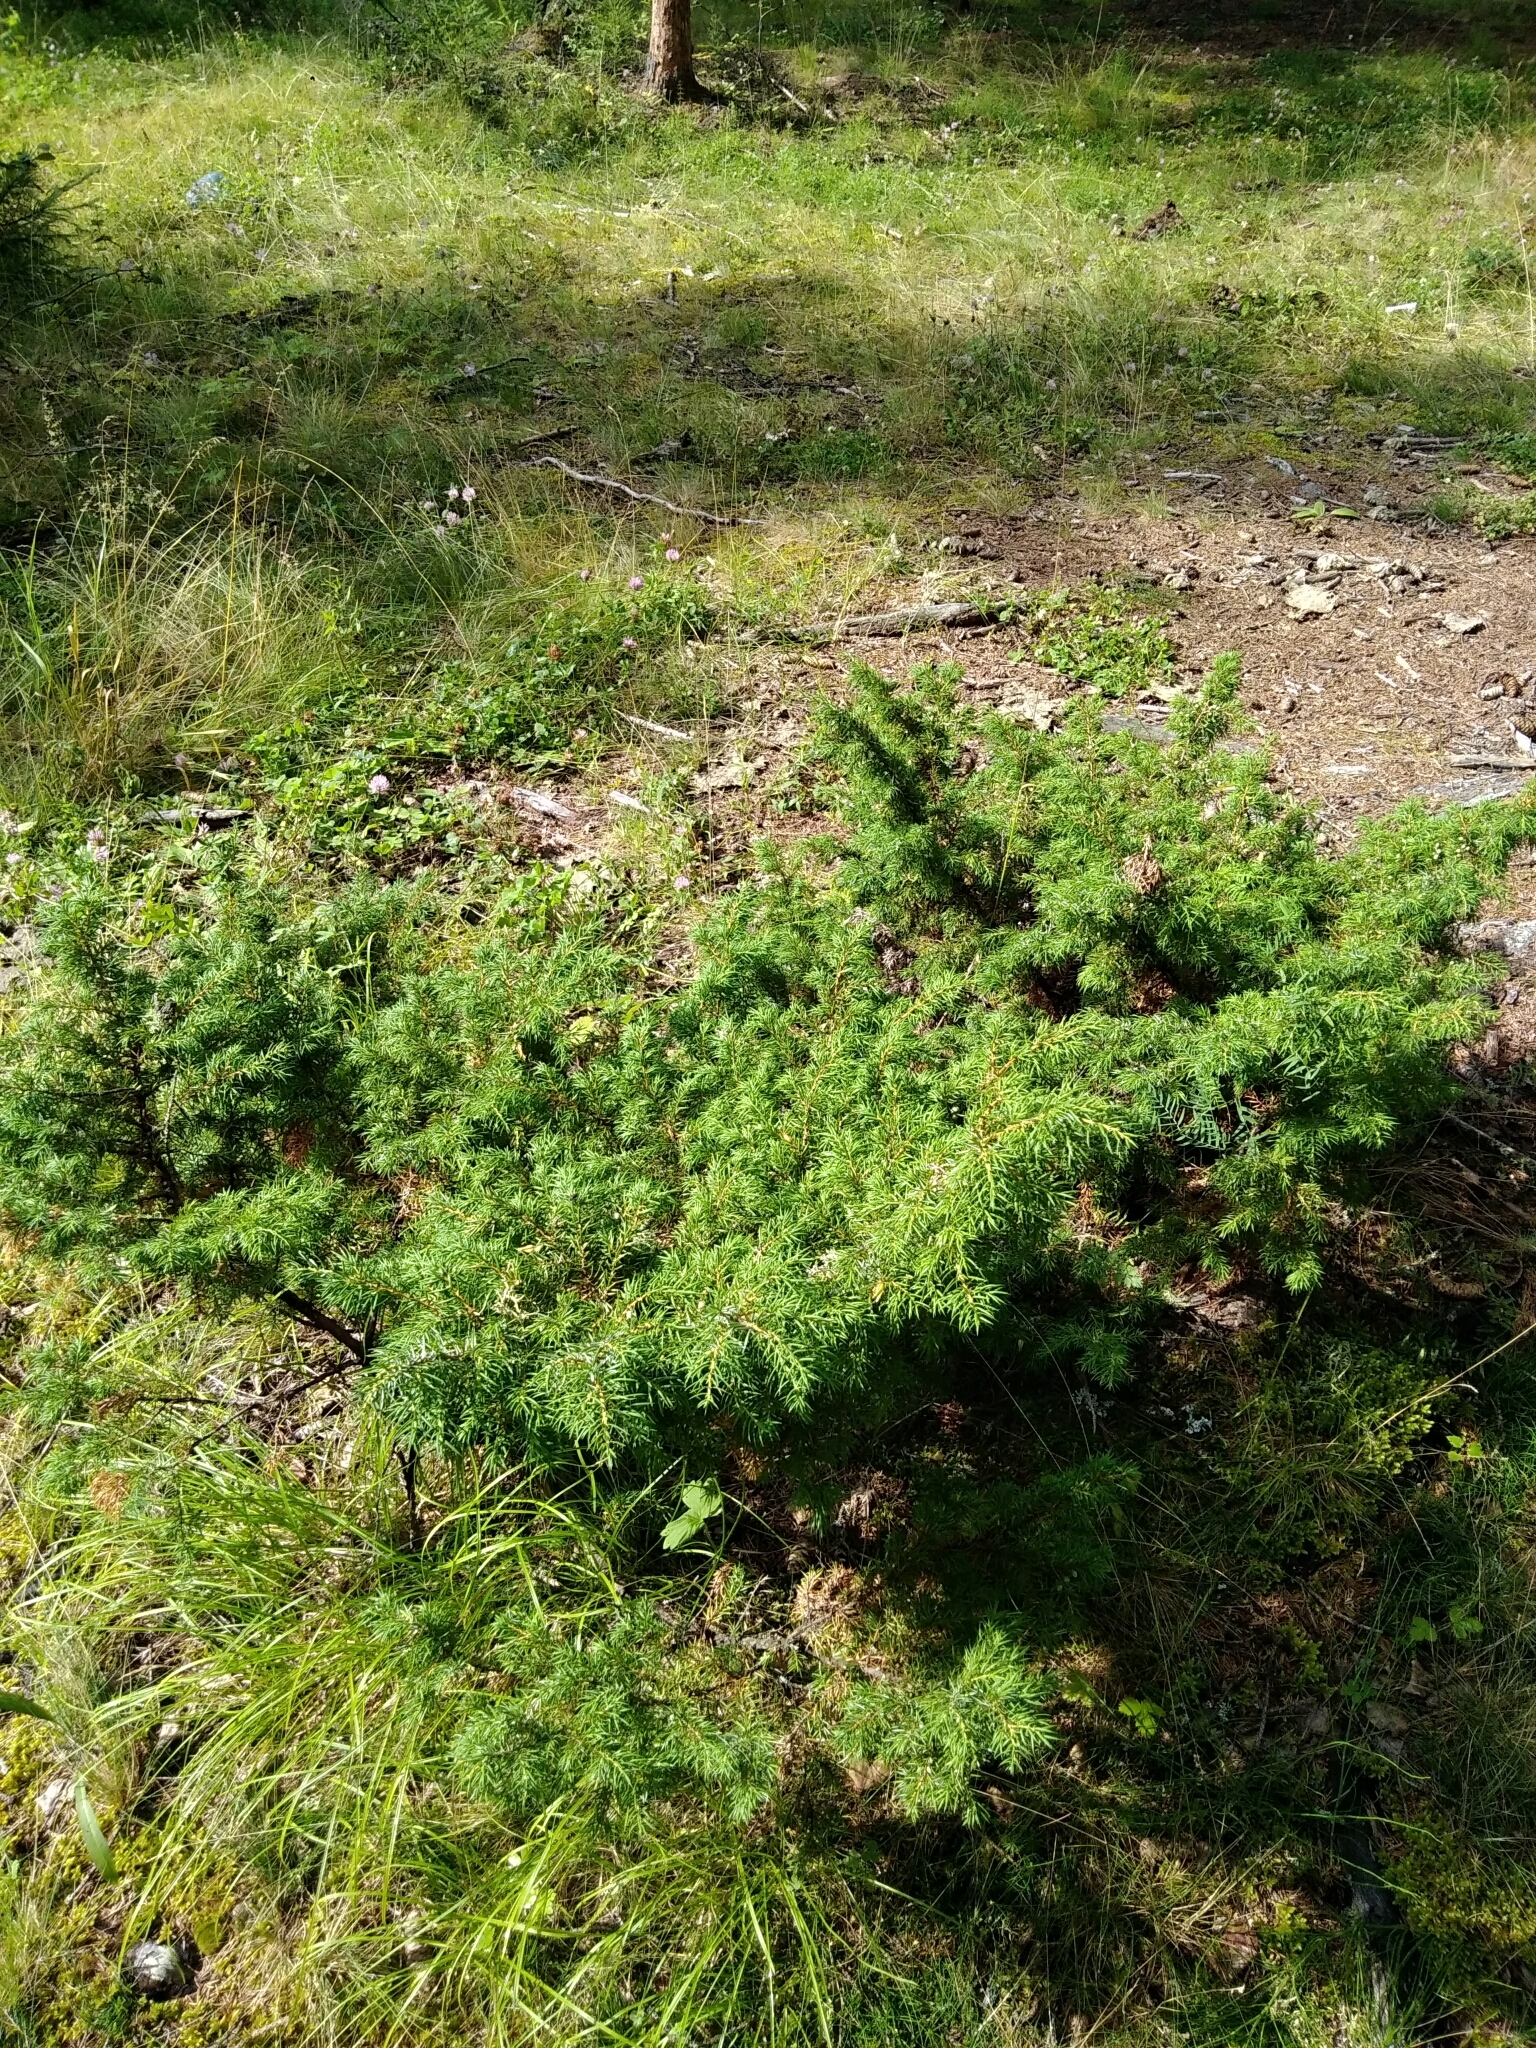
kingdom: Plantae
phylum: Tracheophyta
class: Pinopsida
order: Pinales
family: Cupressaceae
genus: Juniperus
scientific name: Juniperus communis
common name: Common juniper
